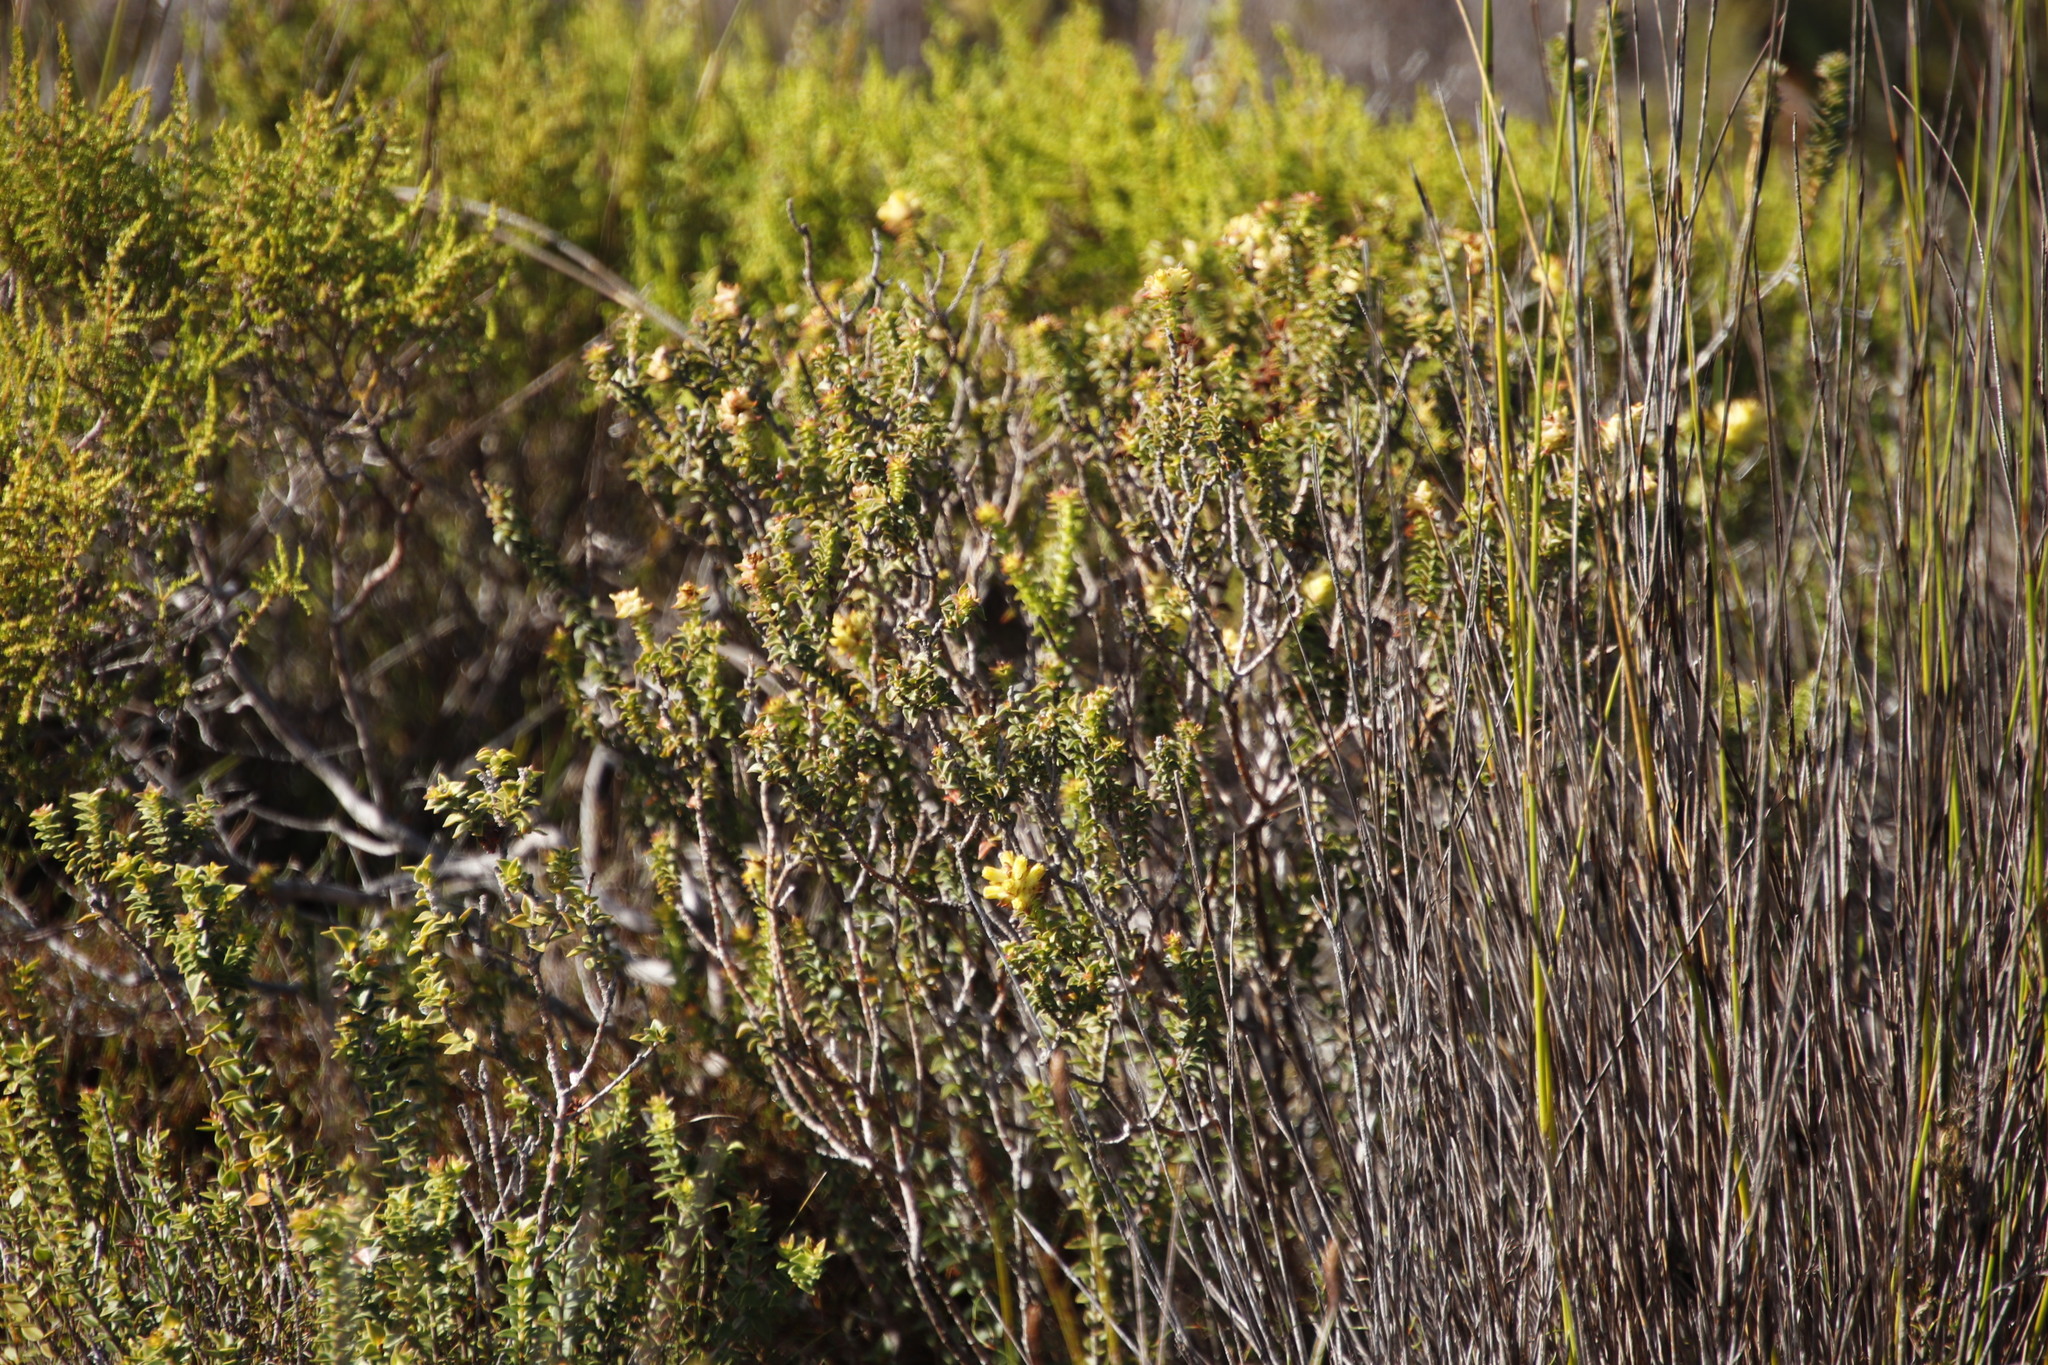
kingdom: Plantae
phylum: Tracheophyta
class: Magnoliopsida
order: Myrtales
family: Penaeaceae
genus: Penaea
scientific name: Penaea mucronata
